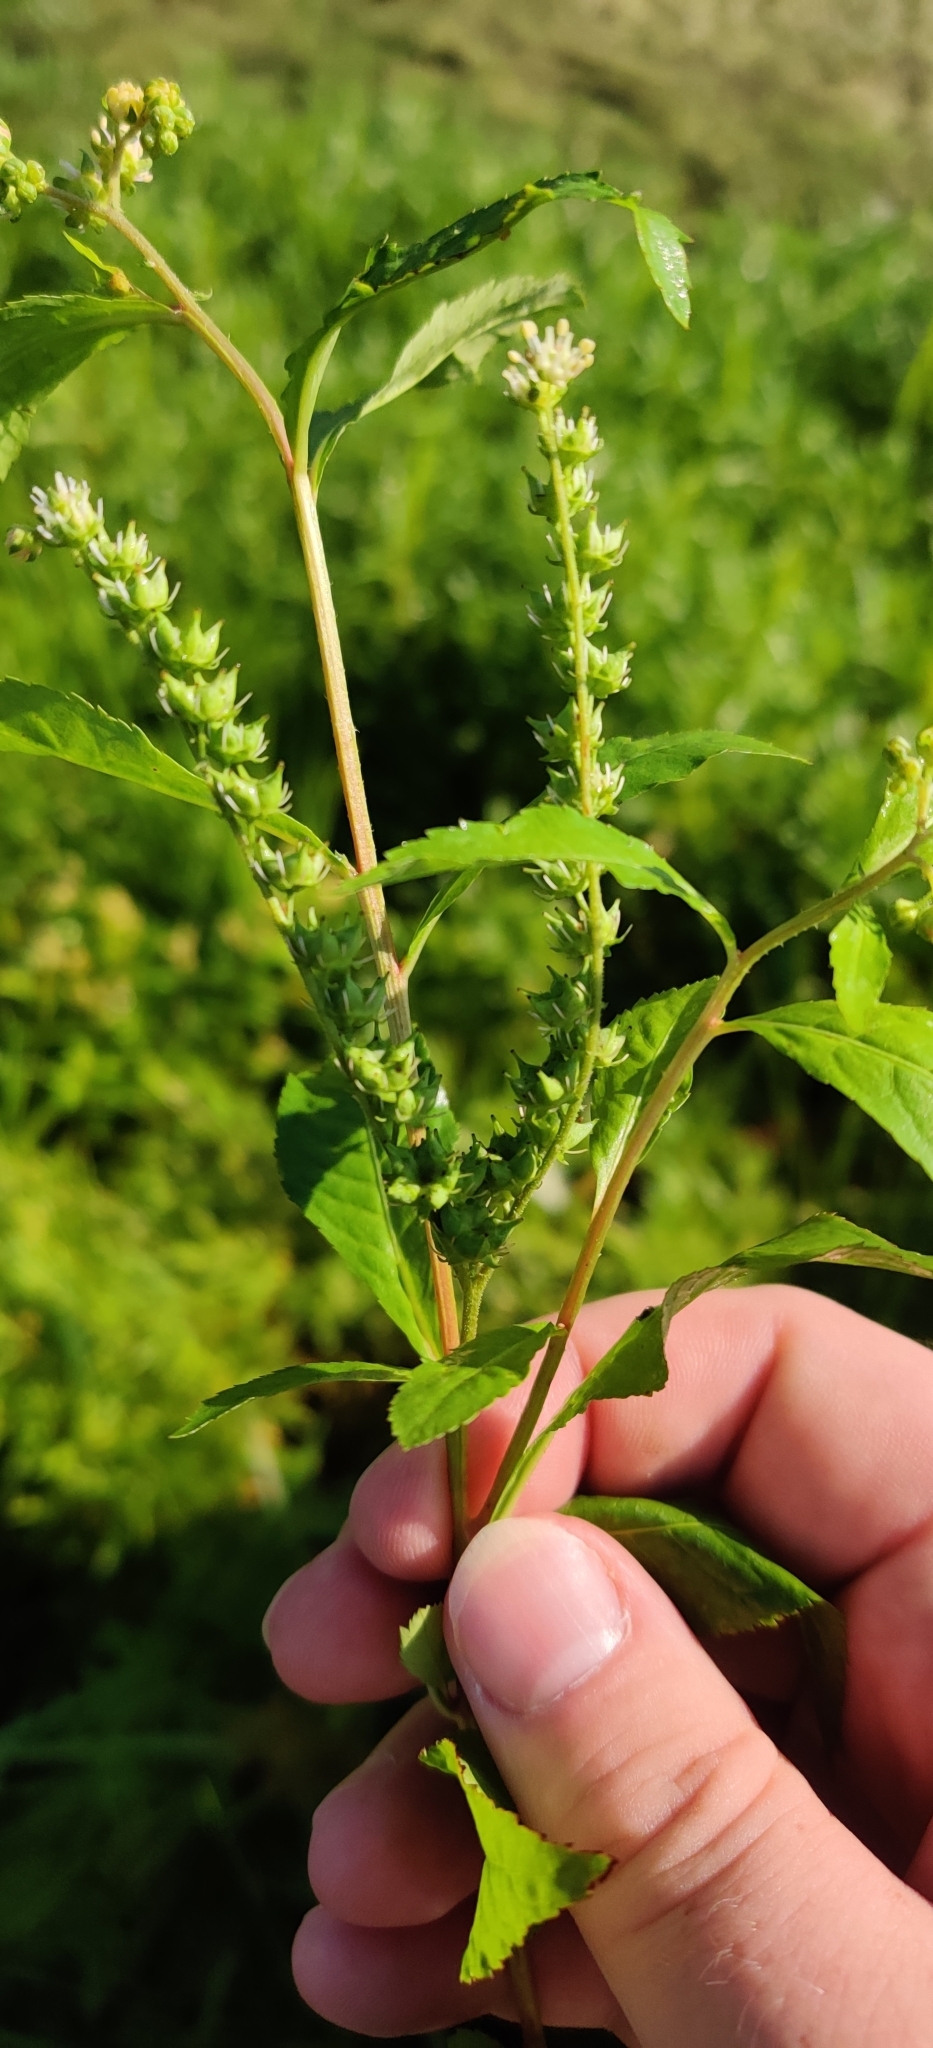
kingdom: Plantae
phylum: Tracheophyta
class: Magnoliopsida
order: Saxifragales
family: Penthoraceae
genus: Penthorum
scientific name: Penthorum sedoides
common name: Ditch stonecrop
